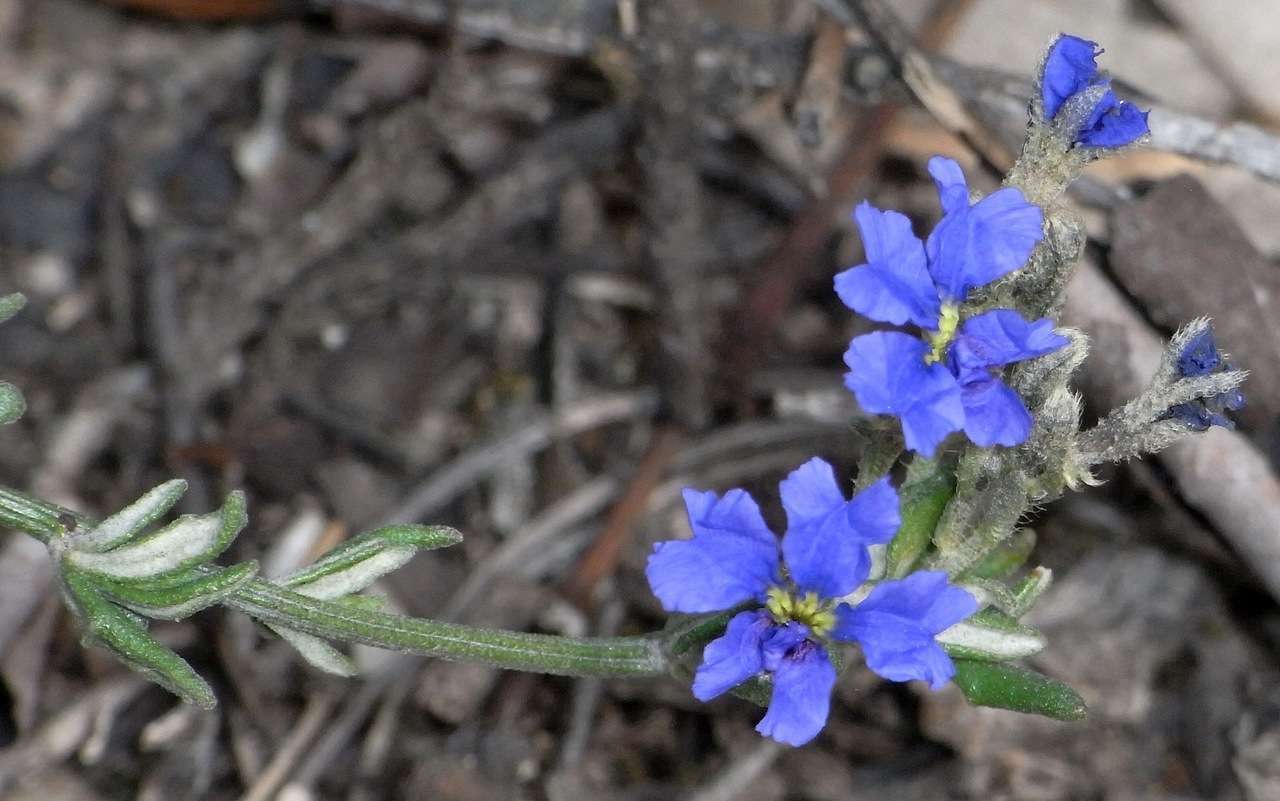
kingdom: Plantae
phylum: Tracheophyta
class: Magnoliopsida
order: Asterales
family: Goodeniaceae
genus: Dampiera
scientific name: Dampiera dysantha
